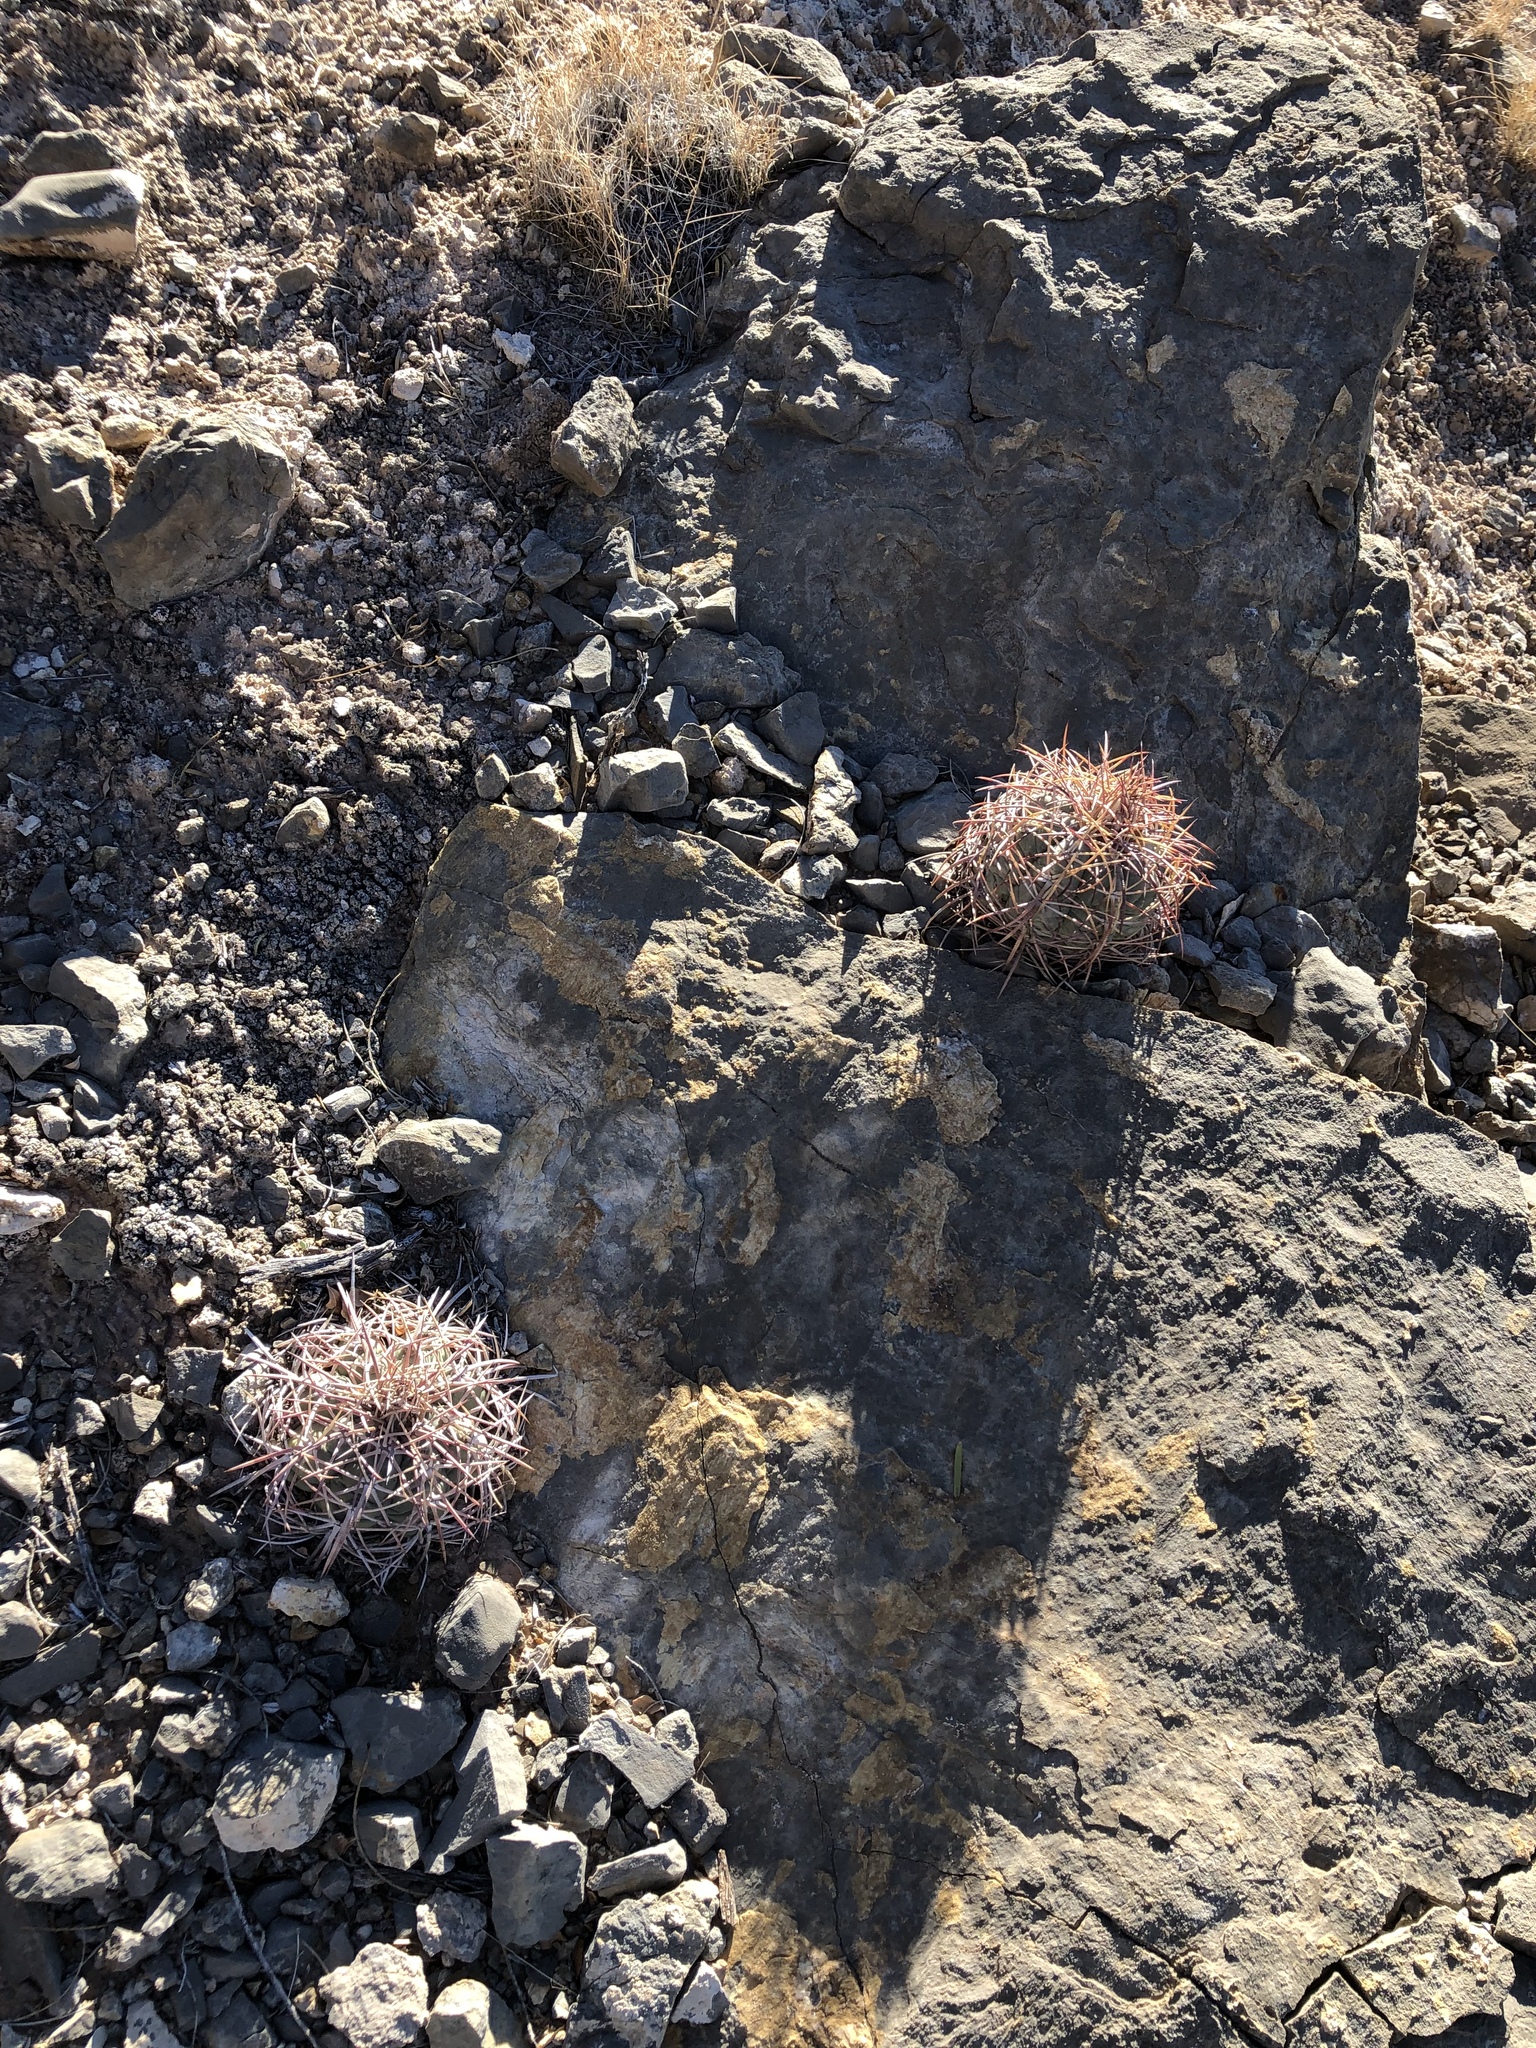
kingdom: Plantae
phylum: Tracheophyta
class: Magnoliopsida
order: Caryophyllales
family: Cactaceae
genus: Echinocactus
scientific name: Echinocactus horizonthalonius
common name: Devilshead
